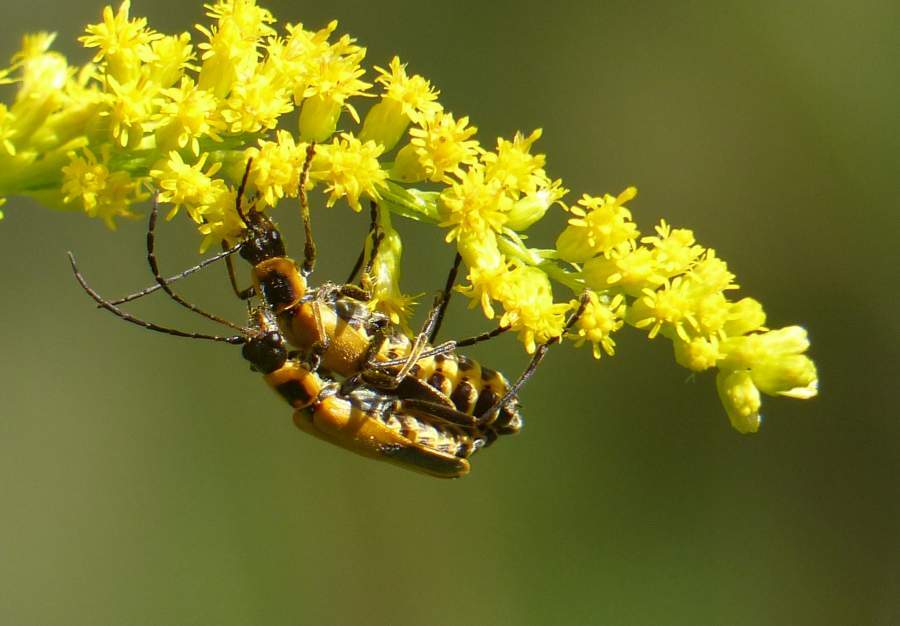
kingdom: Animalia
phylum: Arthropoda
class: Insecta
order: Coleoptera
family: Cantharidae
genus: Chauliognathus
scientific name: Chauliognathus pensylvanicus
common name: Goldenrod soldier beetle
